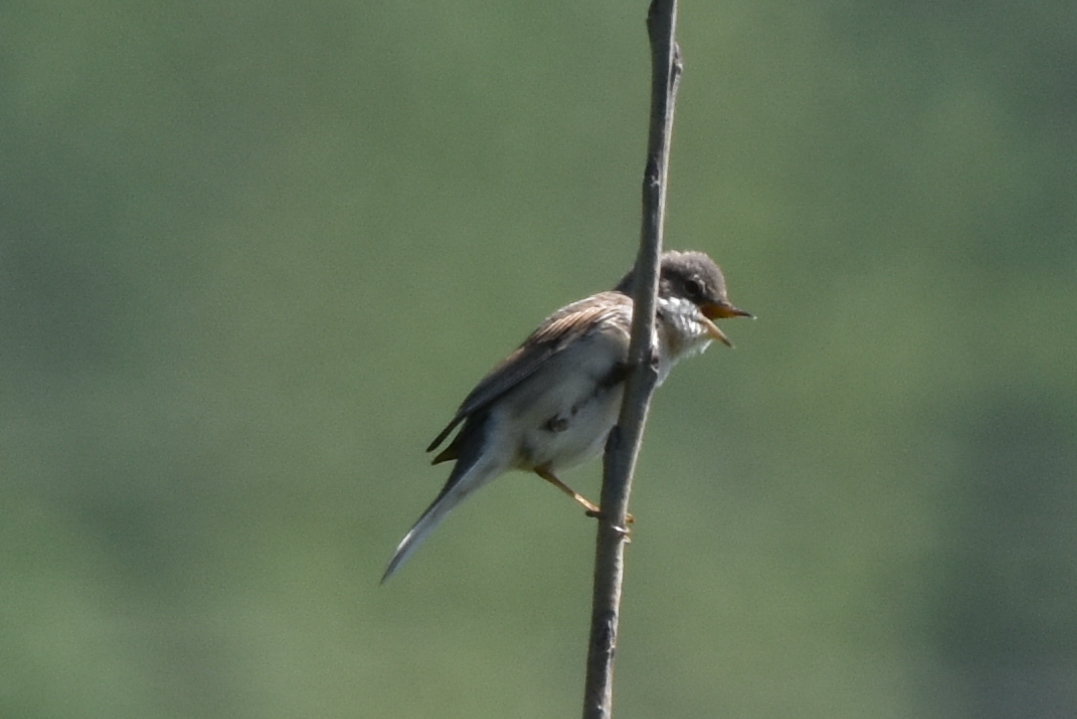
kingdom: Animalia
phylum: Chordata
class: Aves
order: Passeriformes
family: Sylviidae
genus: Sylvia
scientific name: Sylvia communis
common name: Common whitethroat
